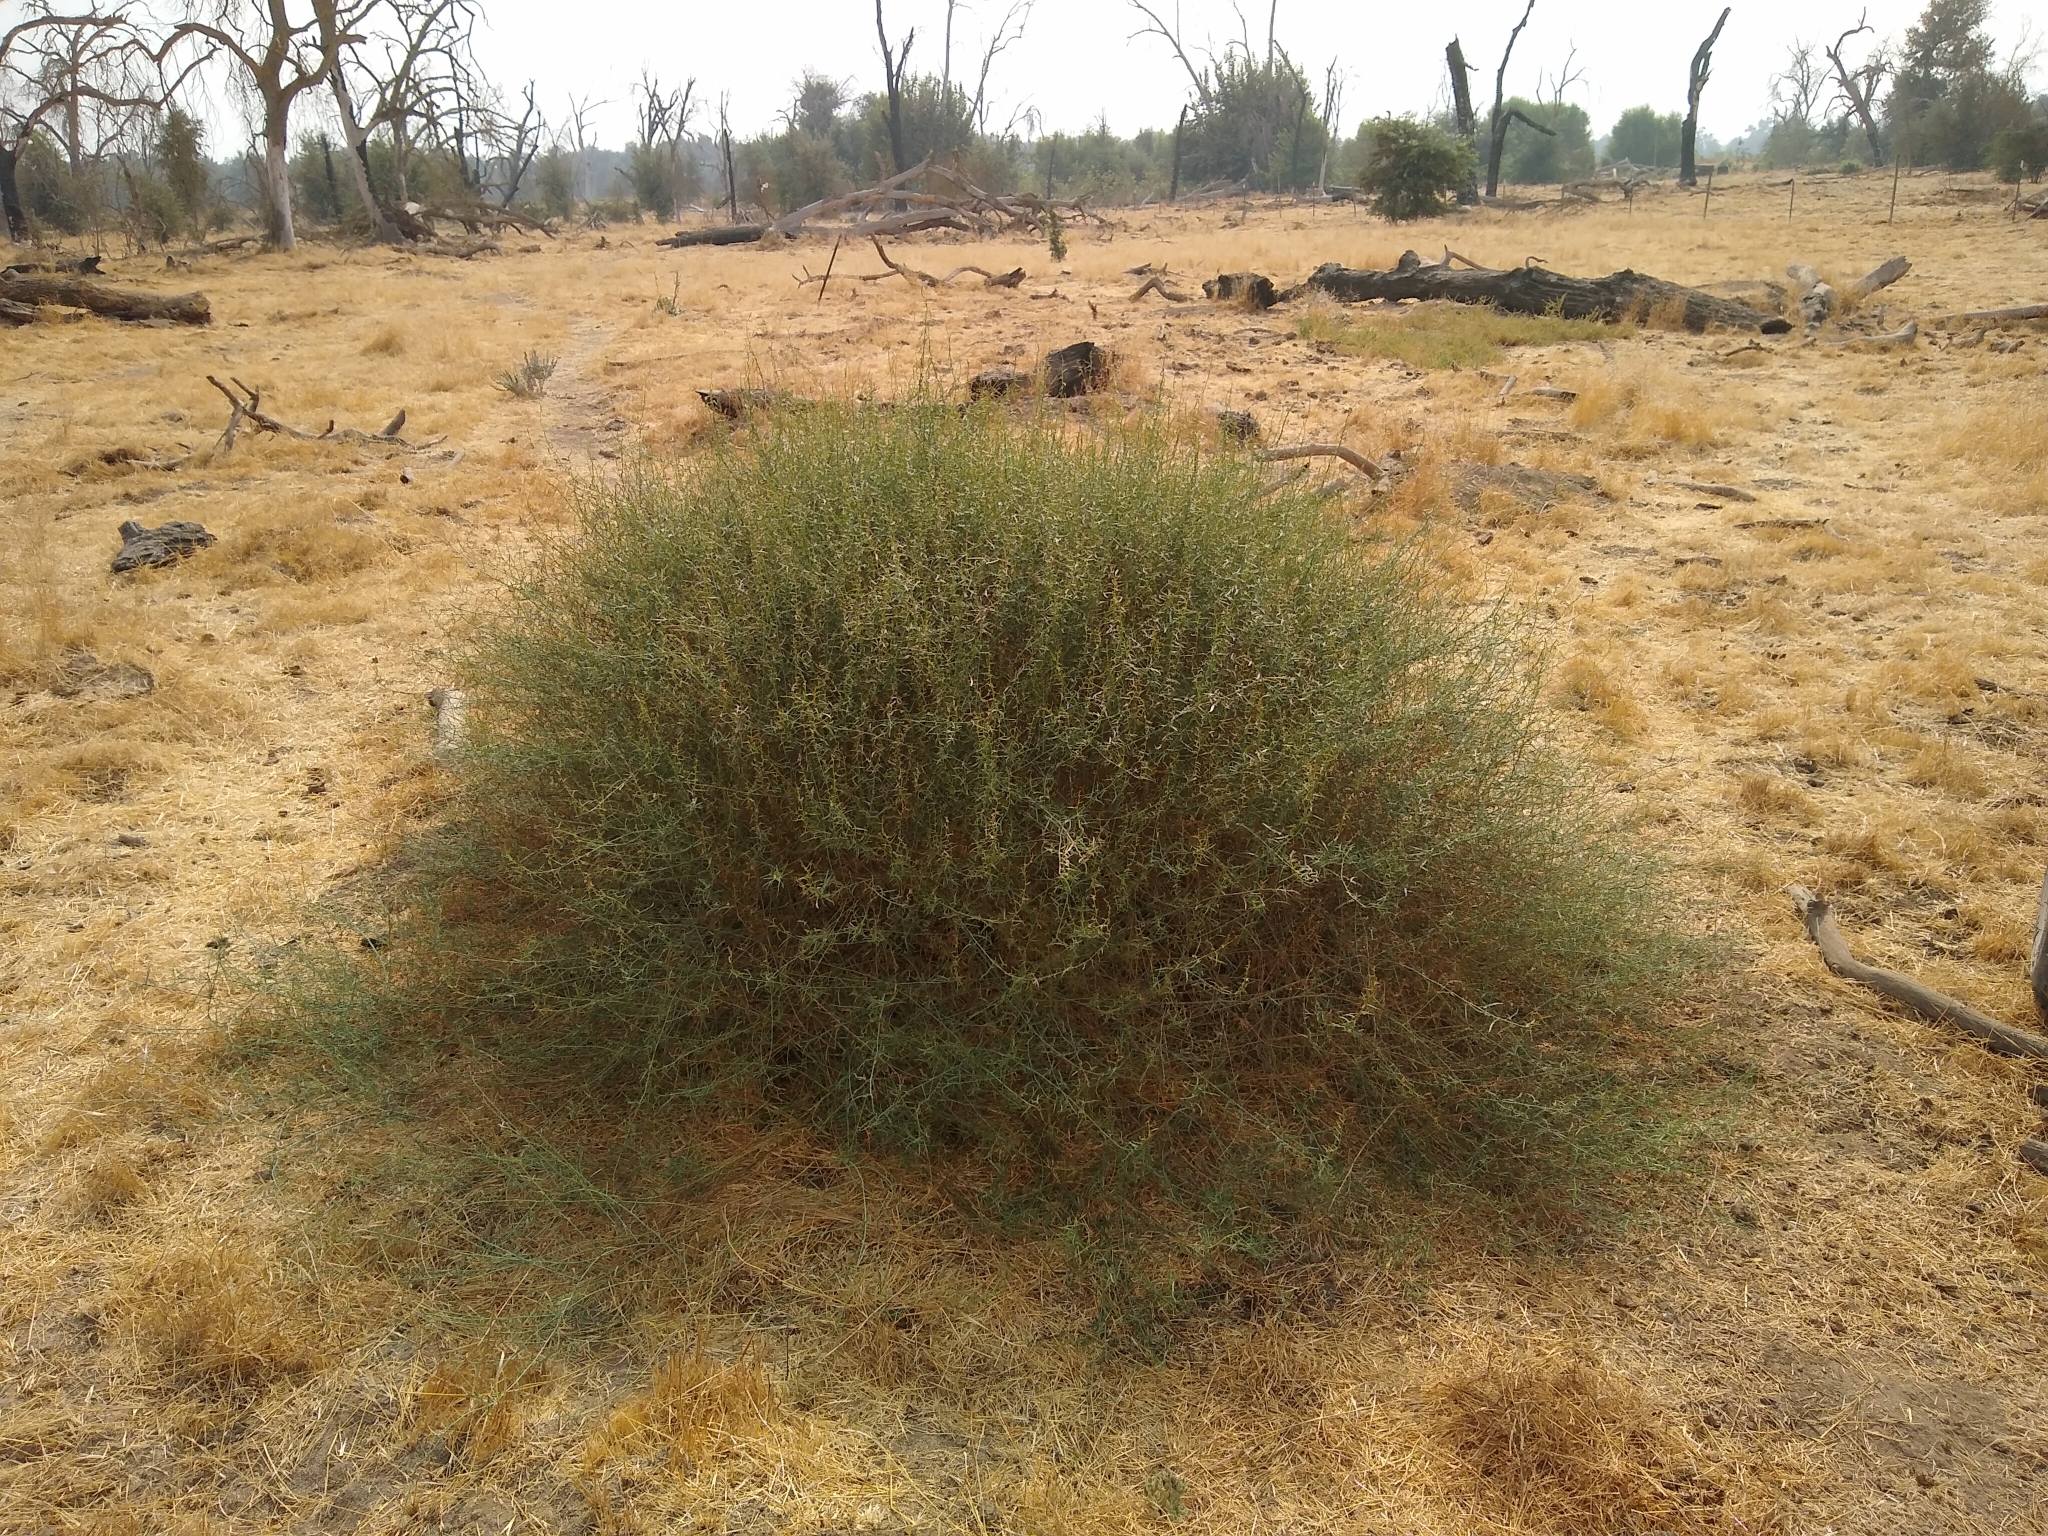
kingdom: Plantae
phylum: Tracheophyta
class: Magnoliopsida
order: Solanales
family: Convolvulaceae
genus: Calystegia
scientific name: Calystegia longipes
